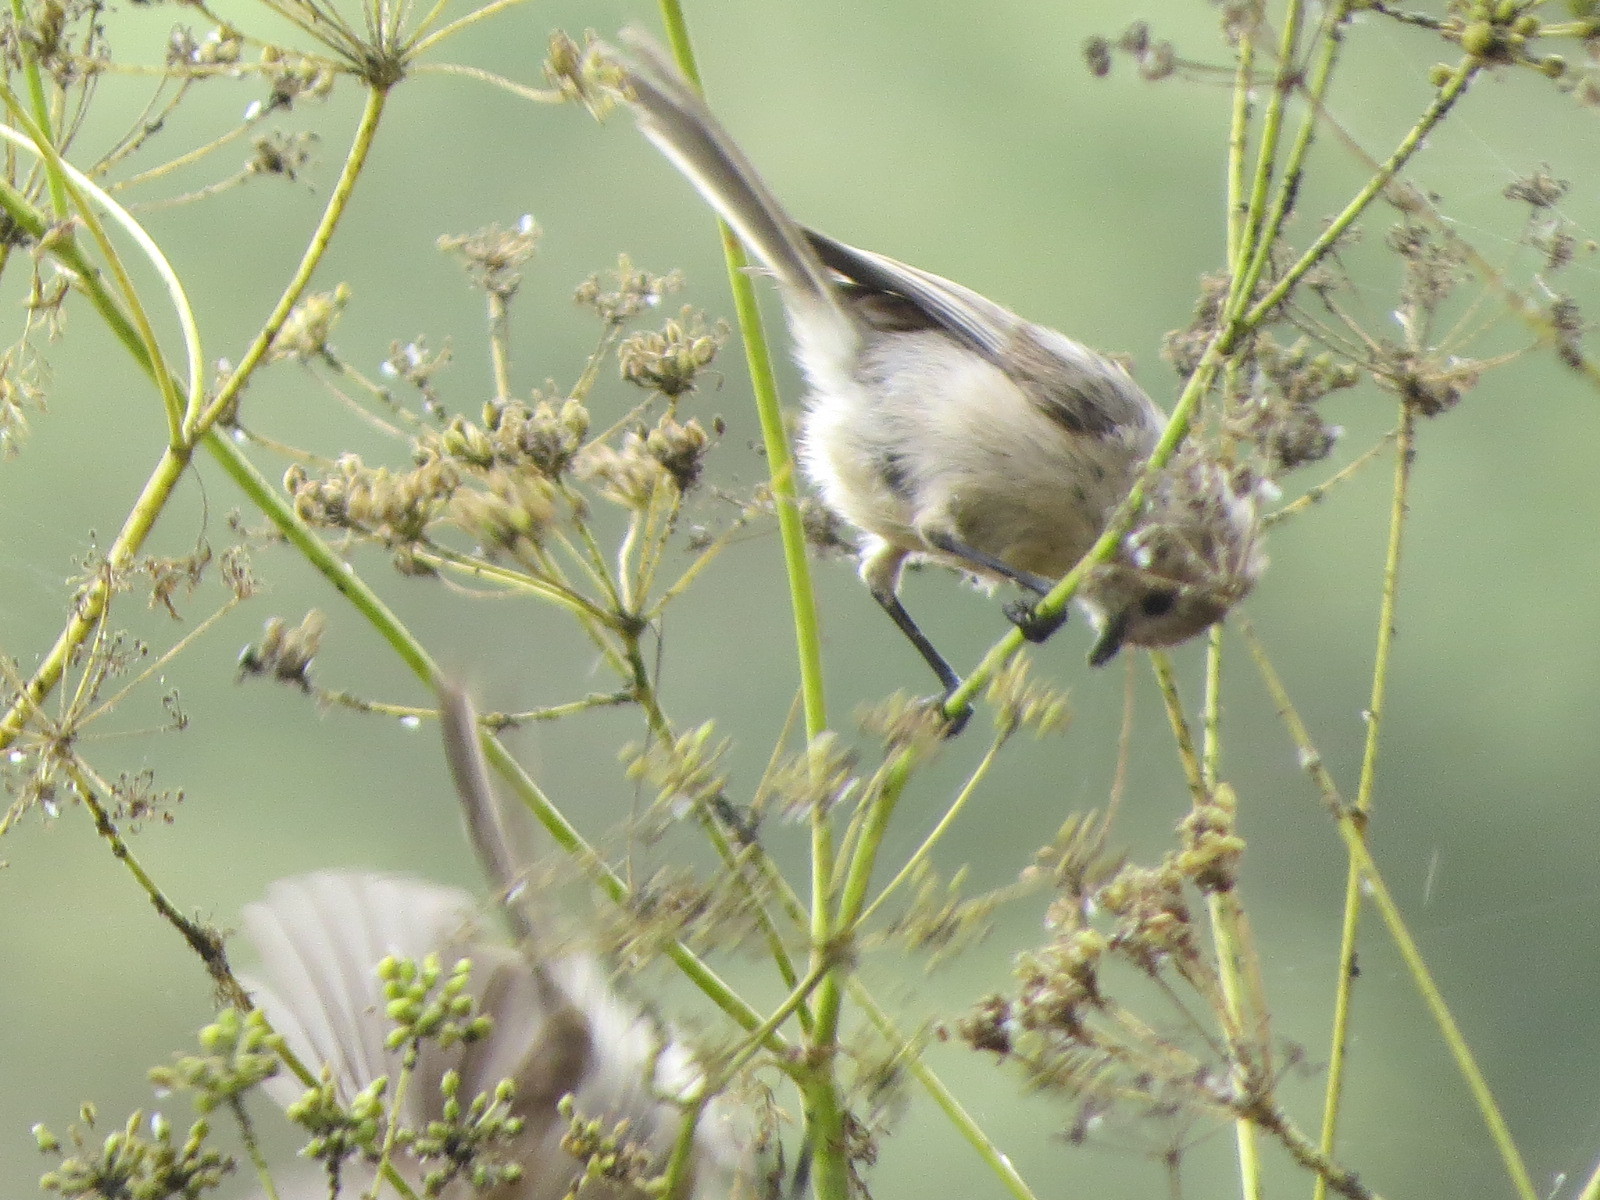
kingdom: Animalia
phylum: Chordata
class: Aves
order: Passeriformes
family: Aegithalidae
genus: Psaltriparus
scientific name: Psaltriparus minimus
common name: American bushtit
